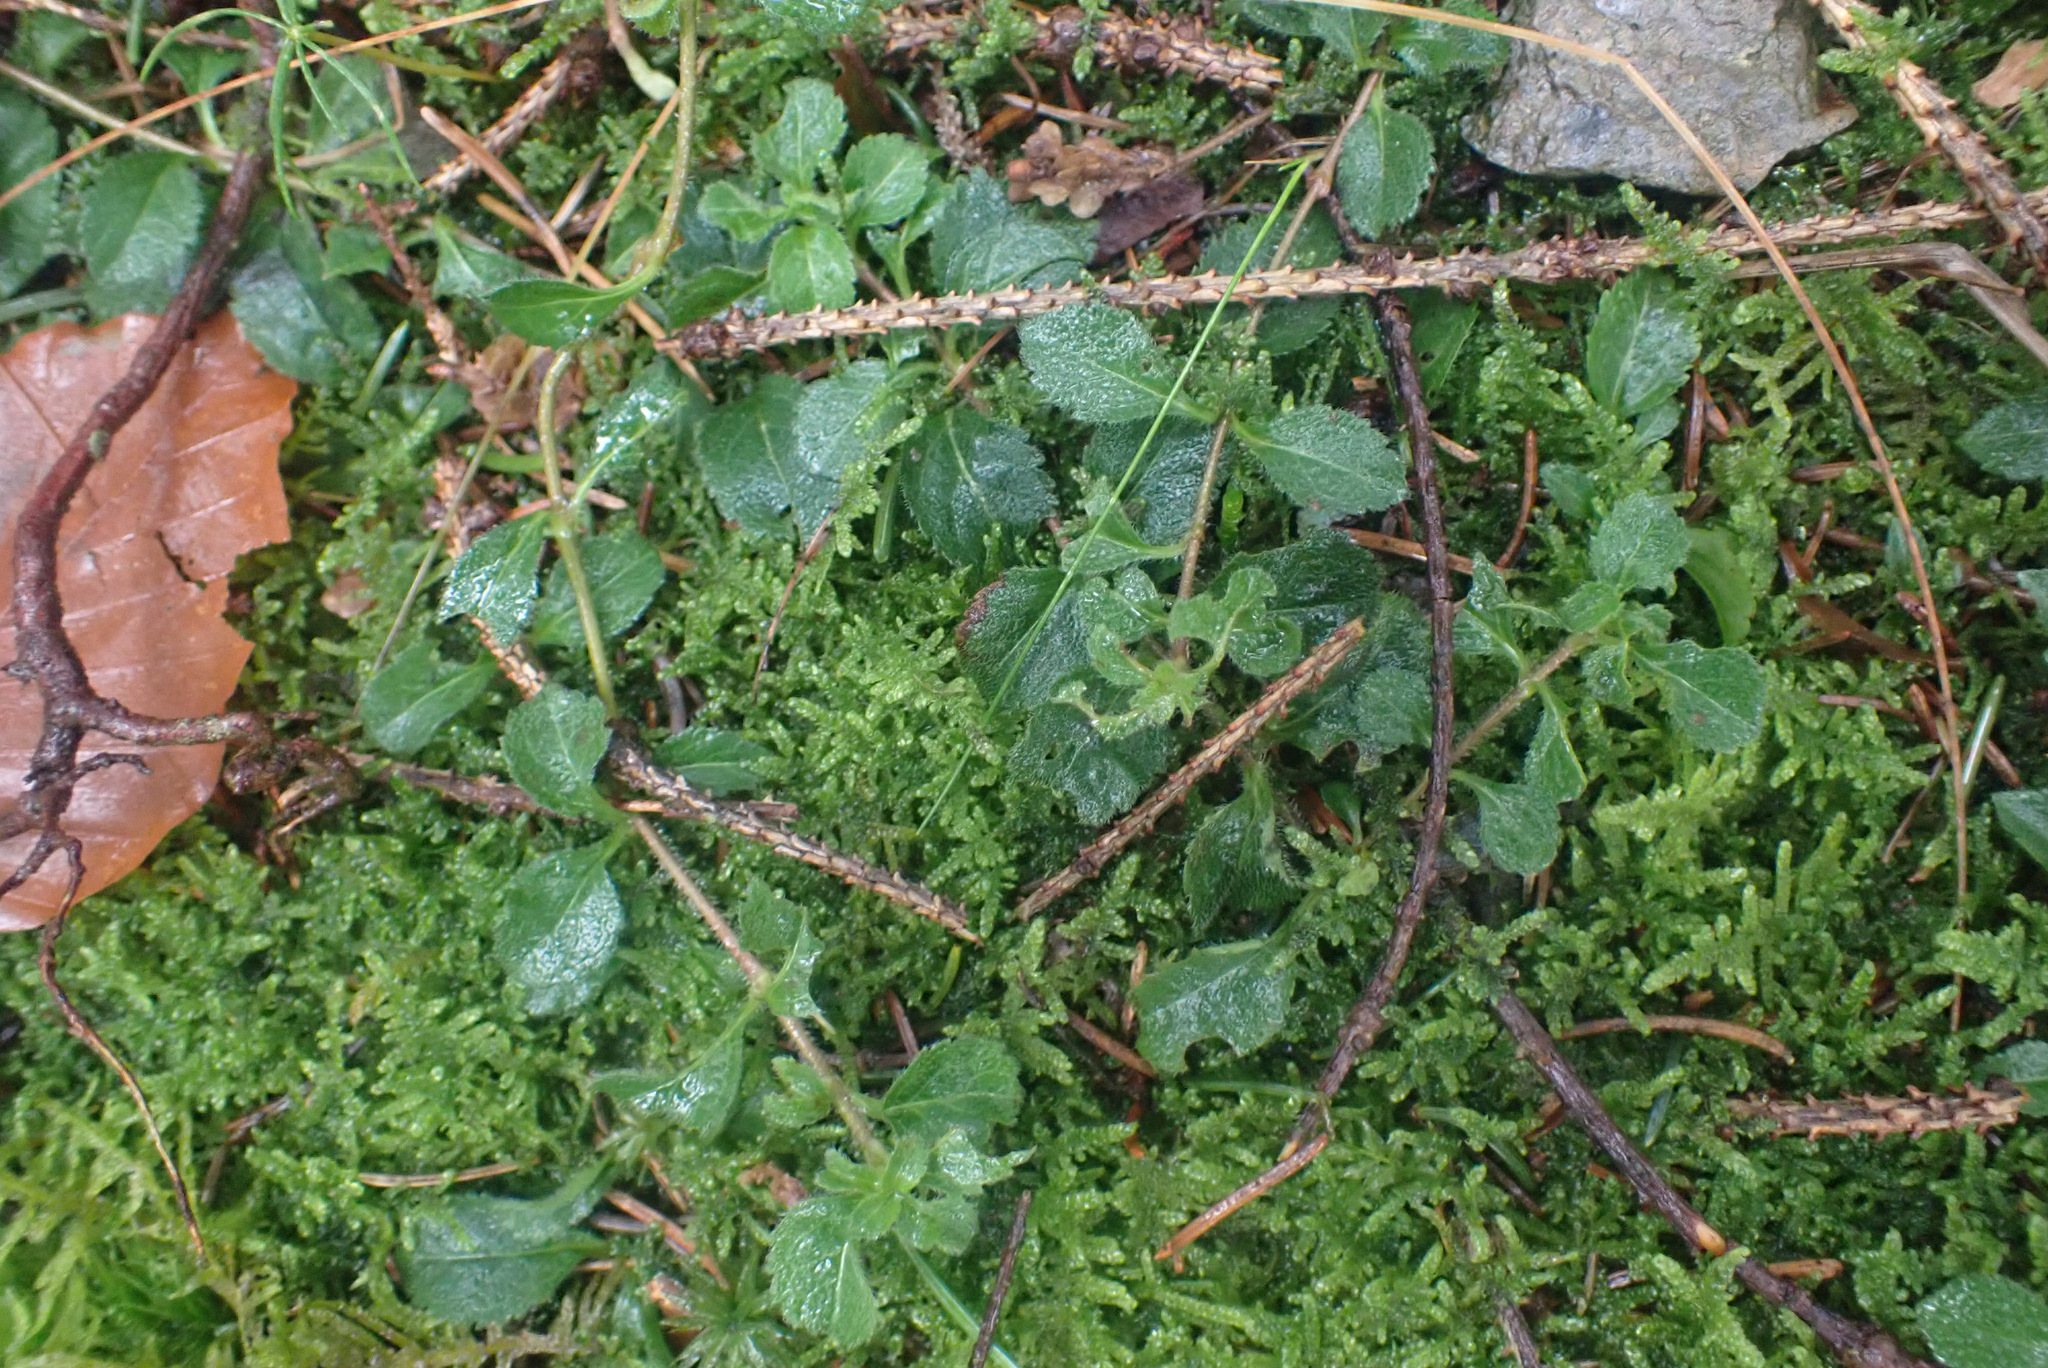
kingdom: Plantae
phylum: Tracheophyta
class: Magnoliopsida
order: Lamiales
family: Plantaginaceae
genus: Veronica
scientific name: Veronica officinalis
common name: Common speedwell
